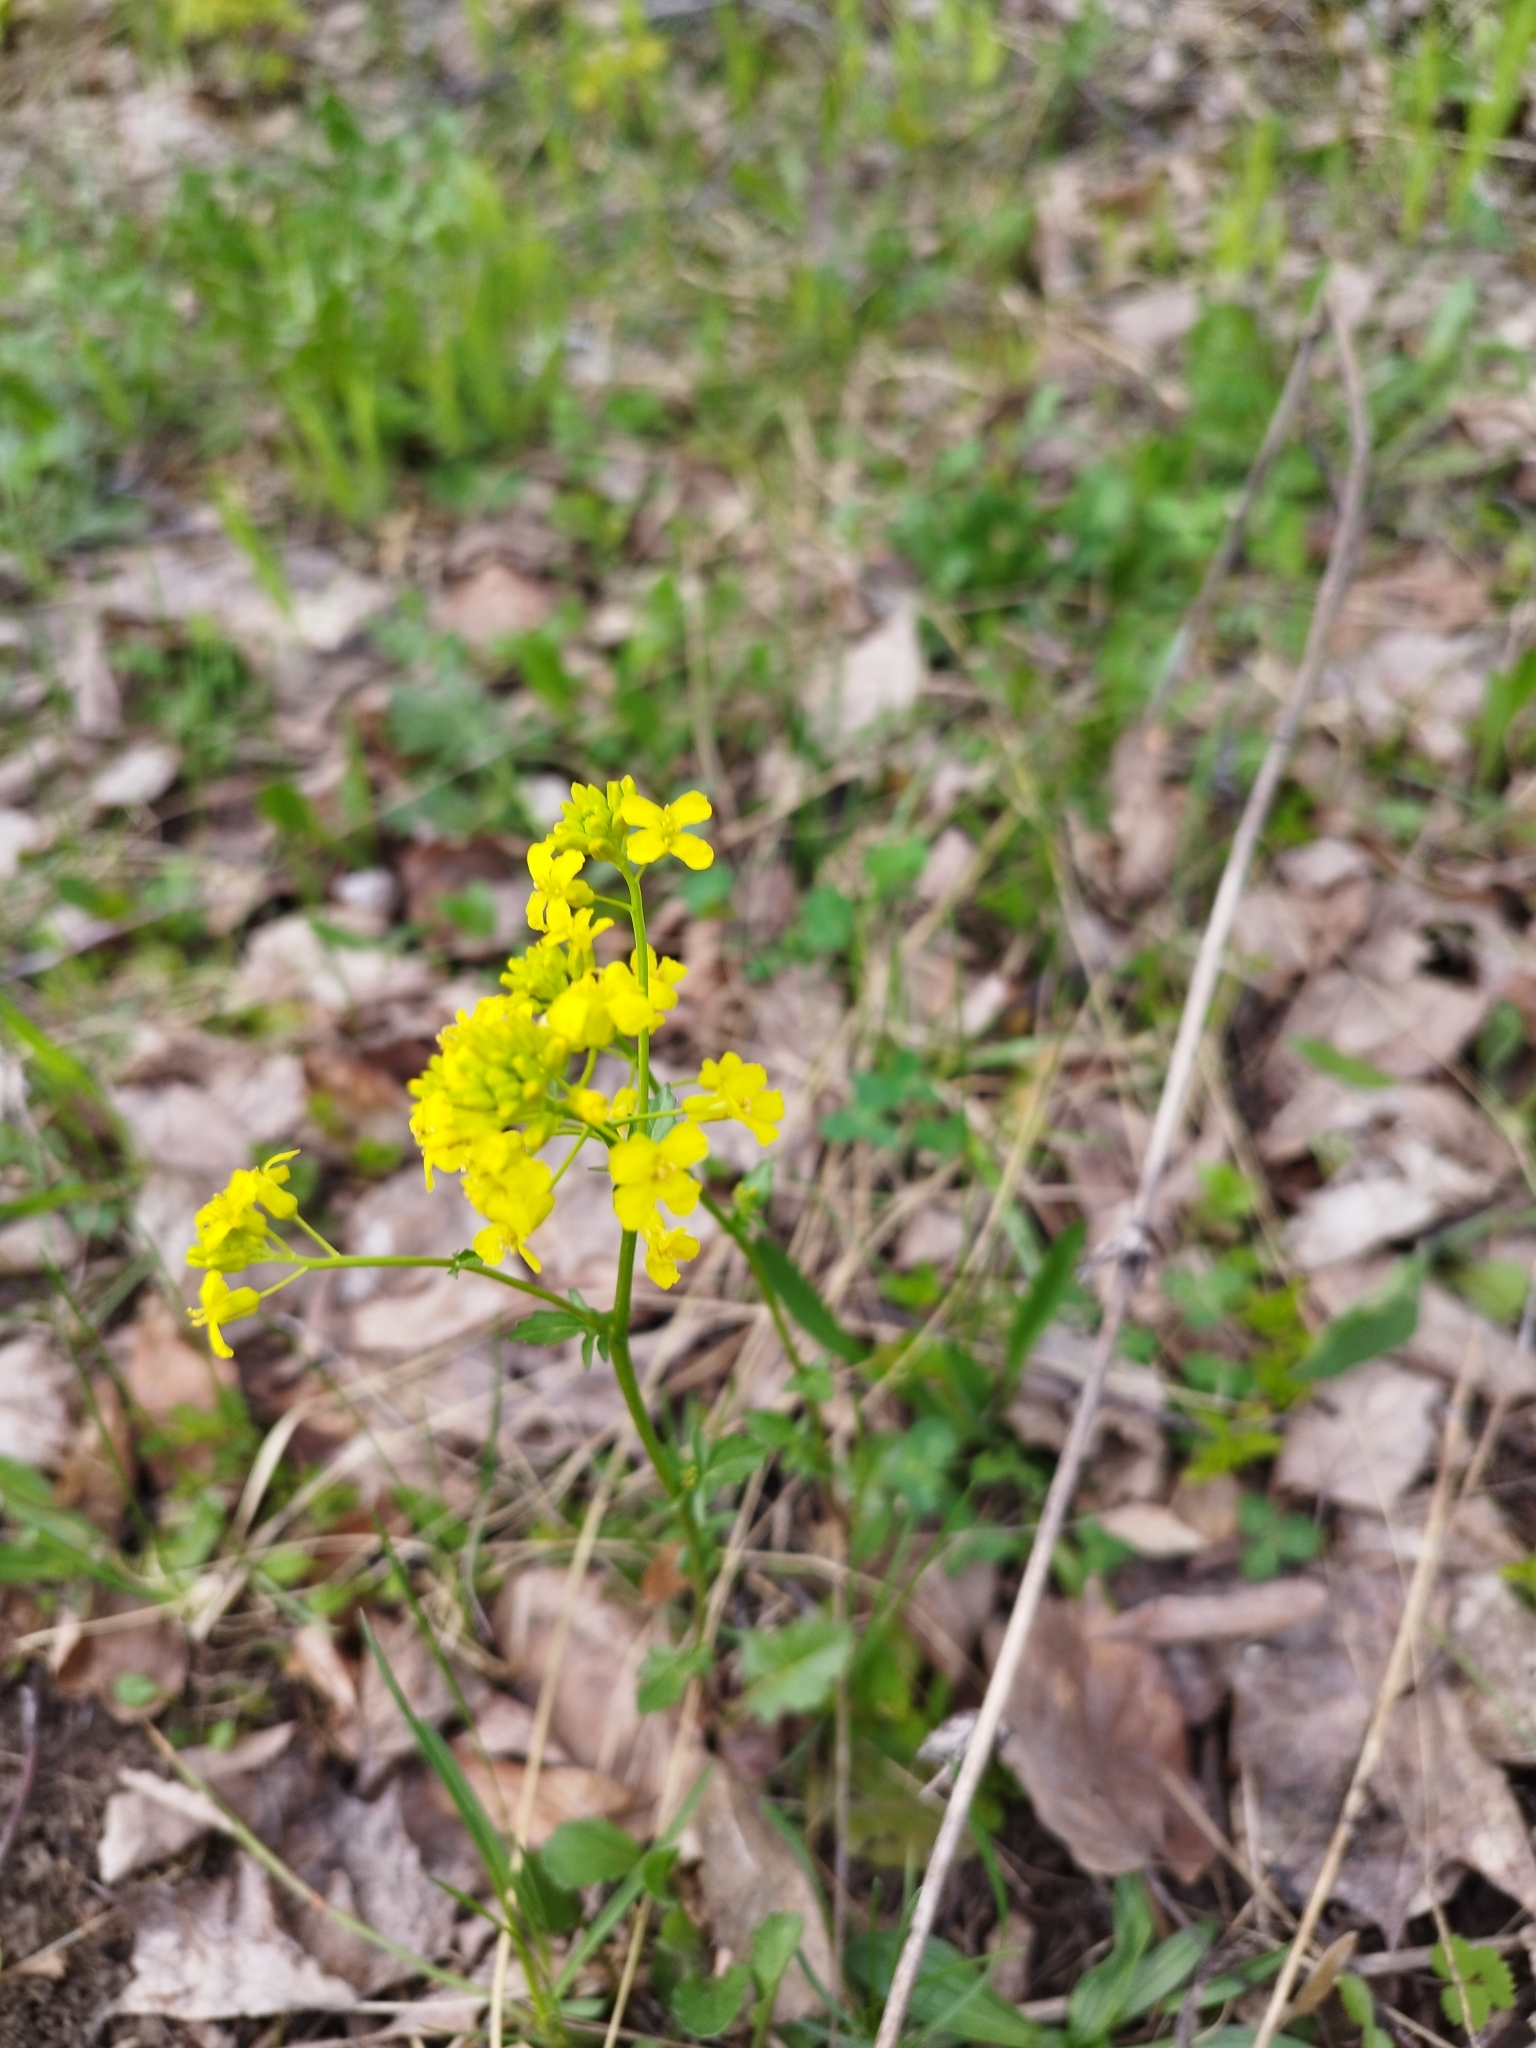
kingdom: Plantae
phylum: Tracheophyta
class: Magnoliopsida
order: Brassicales
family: Brassicaceae
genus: Barbarea
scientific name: Barbarea vulgaris
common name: Cressy-greens
